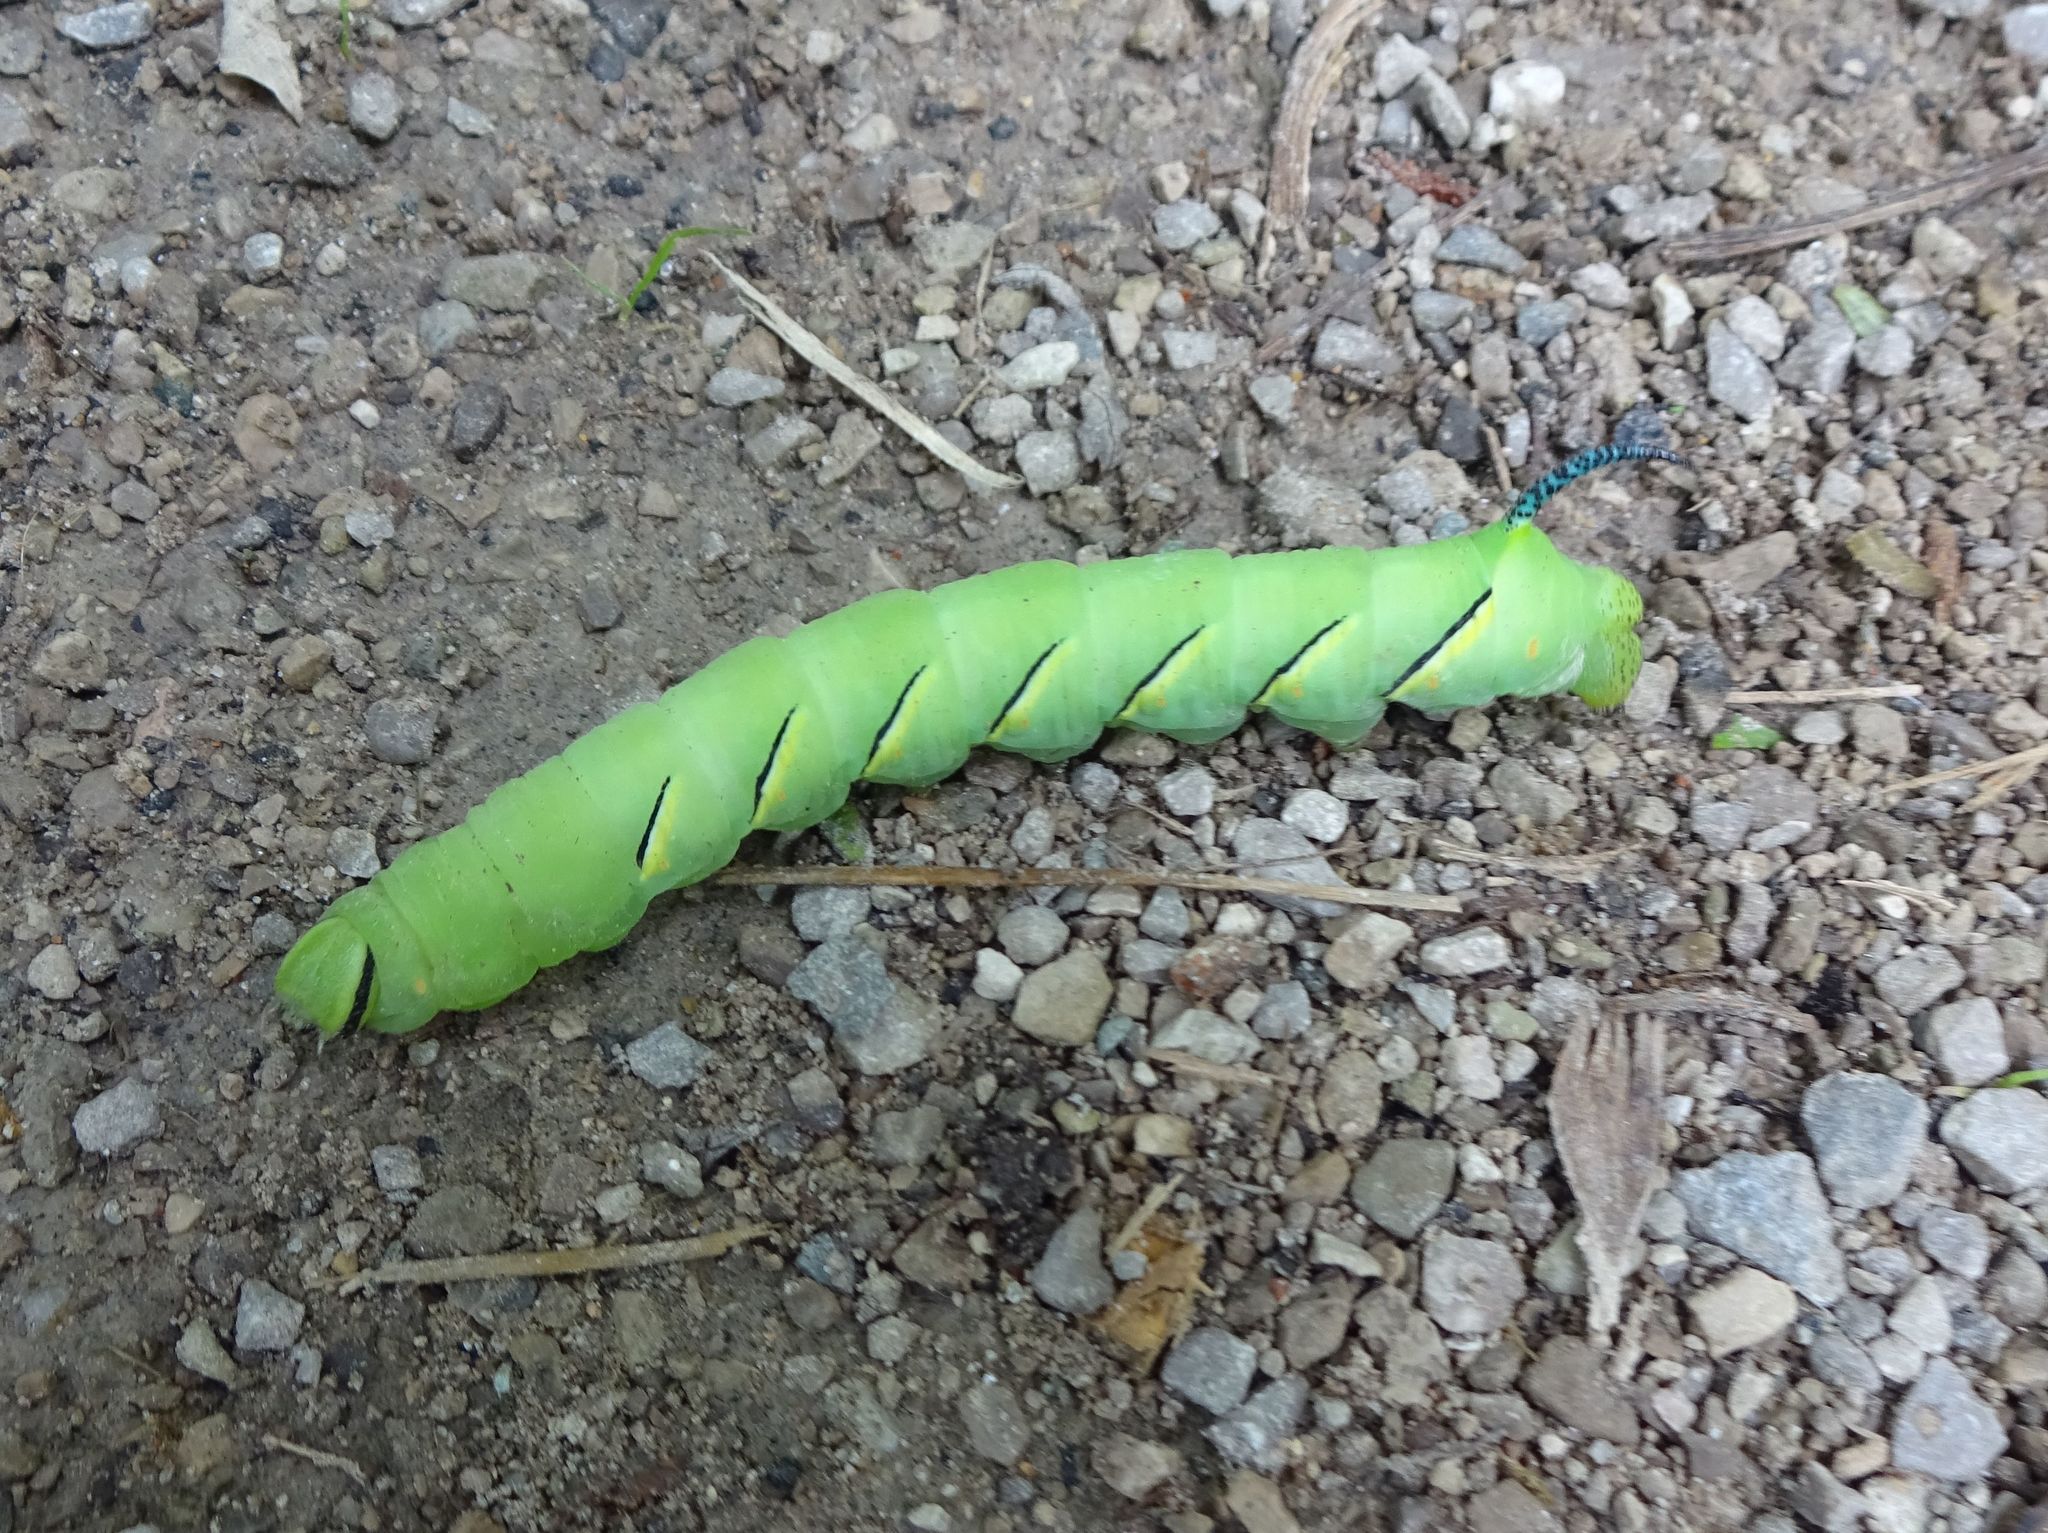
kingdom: Animalia
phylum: Arthropoda
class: Insecta
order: Lepidoptera
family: Sphingidae
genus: Sphinx
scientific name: Sphinx kalmiae
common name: Laurel sphinx
